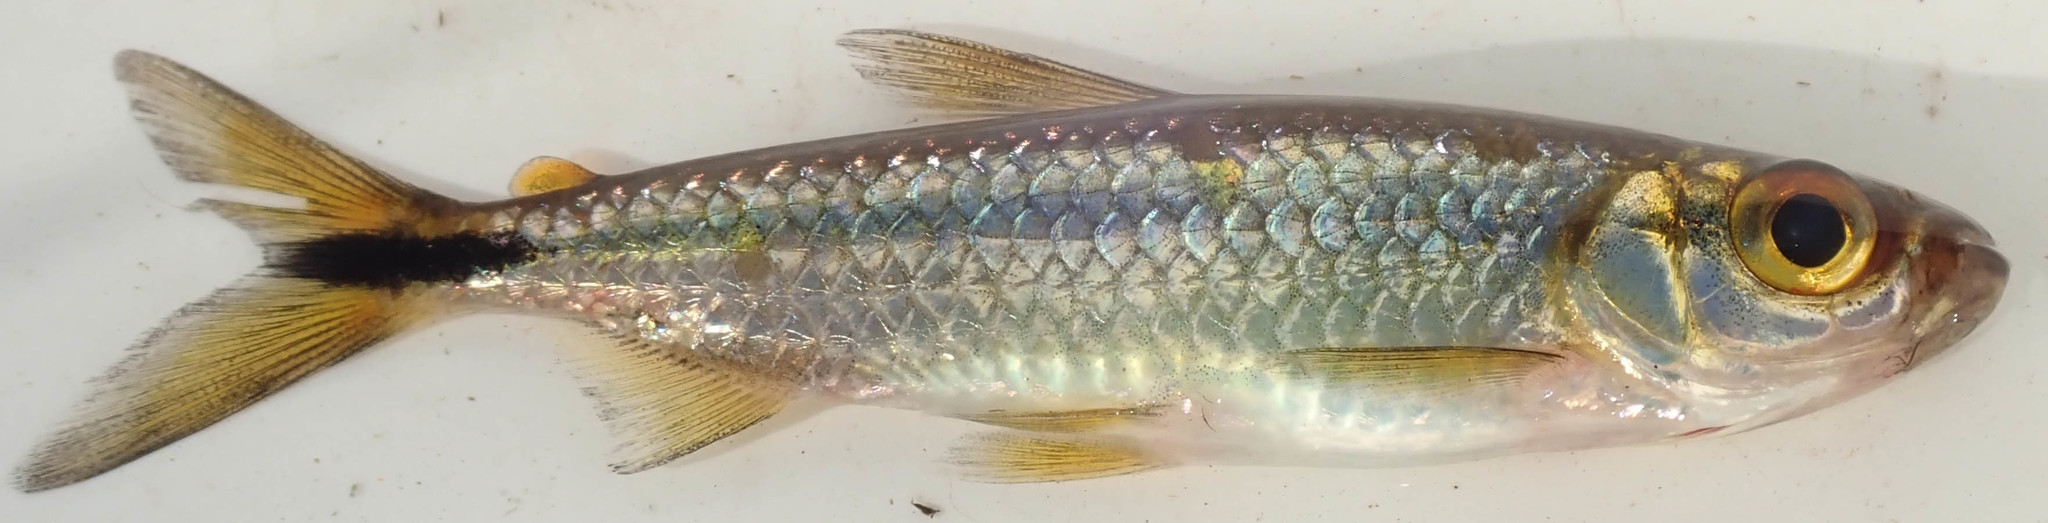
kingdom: Animalia
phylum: Chordata
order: Characiformes
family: Alestidae
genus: Alestes
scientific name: Alestes
